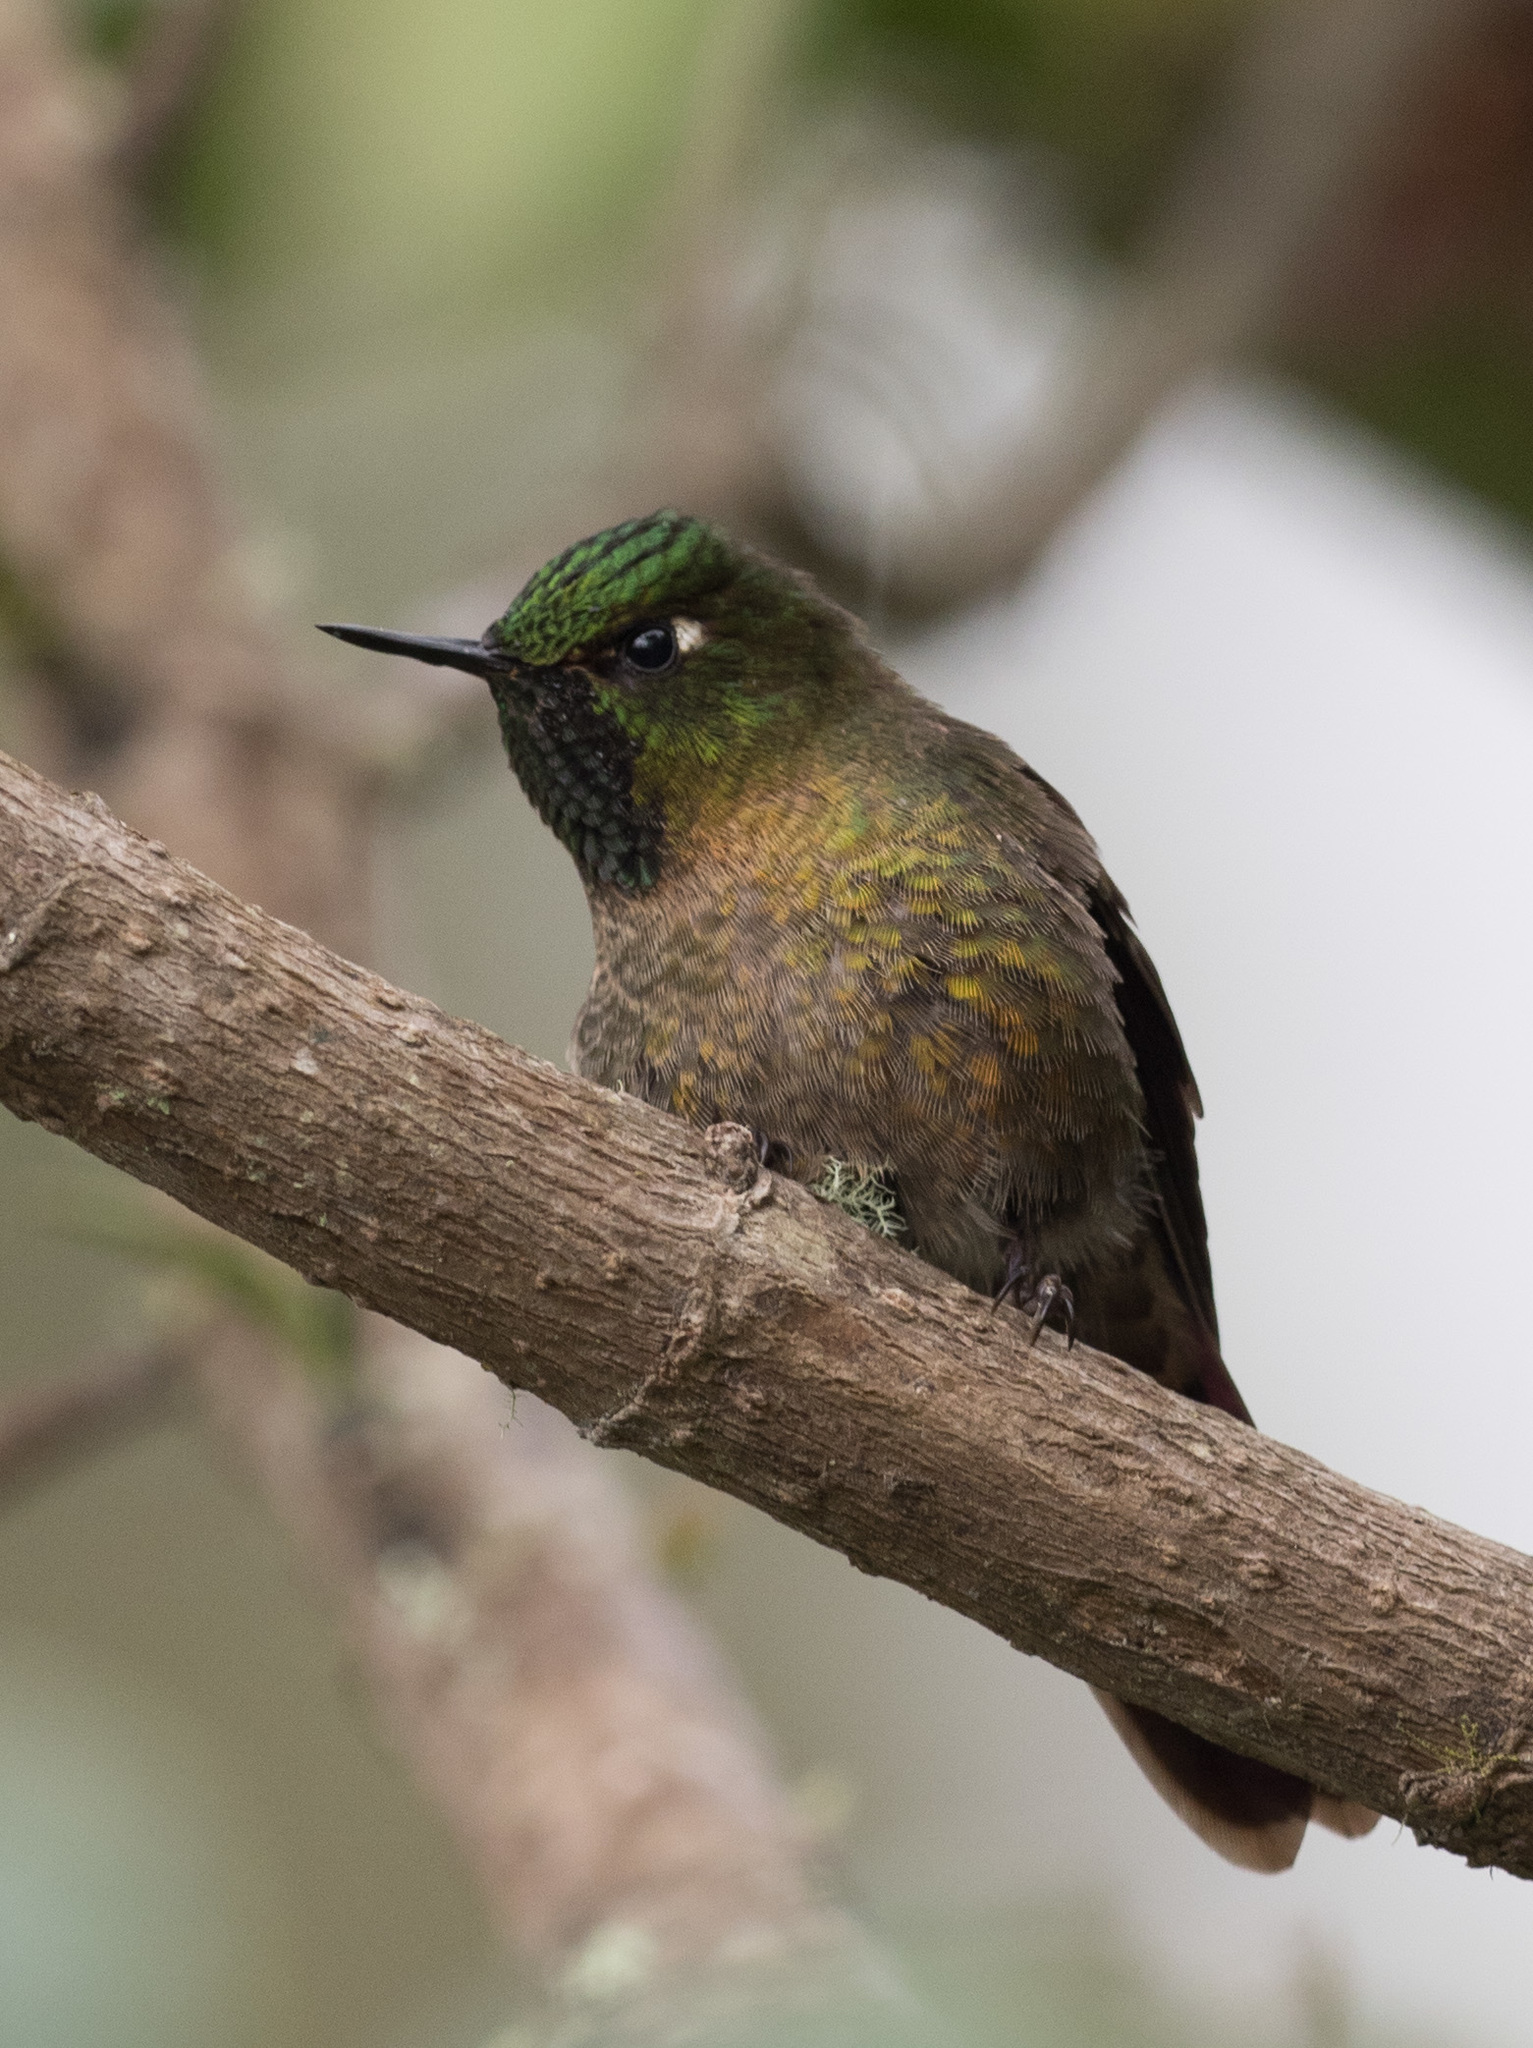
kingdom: Animalia
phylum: Chordata
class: Aves
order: Apodiformes
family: Trochilidae
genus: Metallura
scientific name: Metallura tyrianthina
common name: Tyrian metaltail
